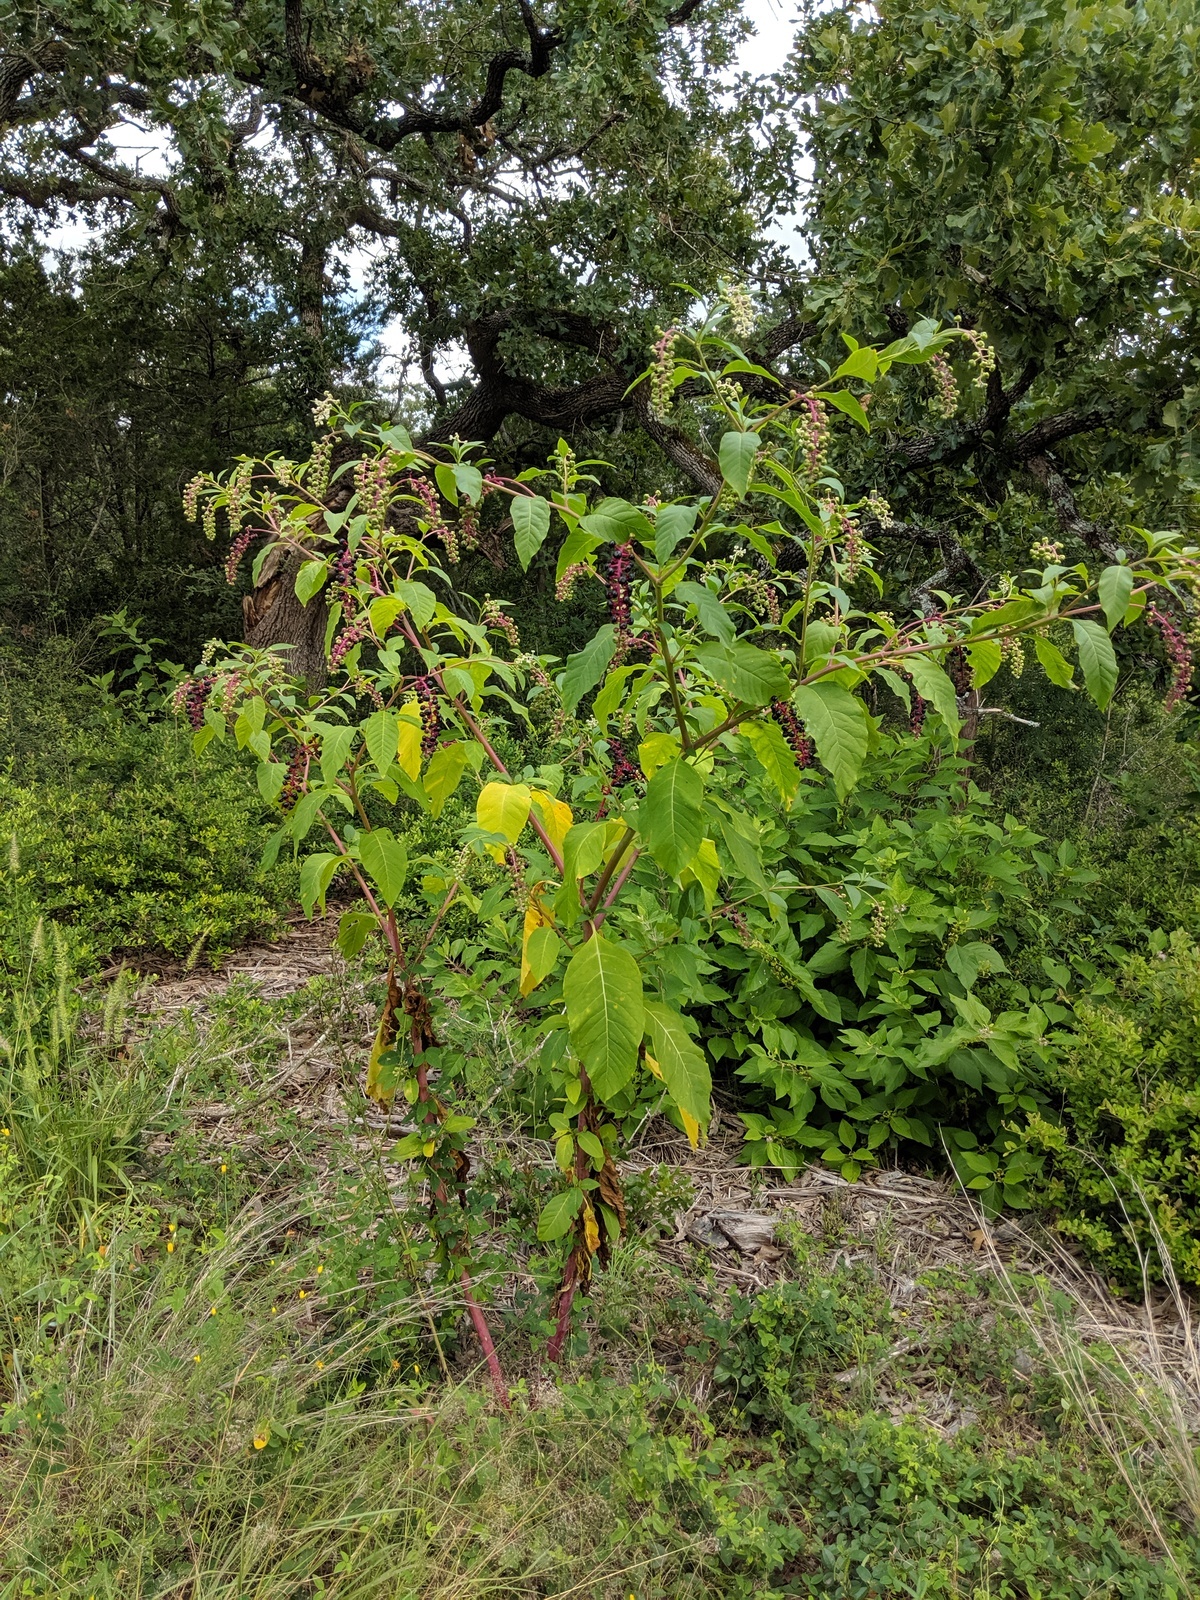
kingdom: Plantae
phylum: Tracheophyta
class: Magnoliopsida
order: Caryophyllales
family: Phytolaccaceae
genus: Phytolacca
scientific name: Phytolacca americana
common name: American pokeweed
